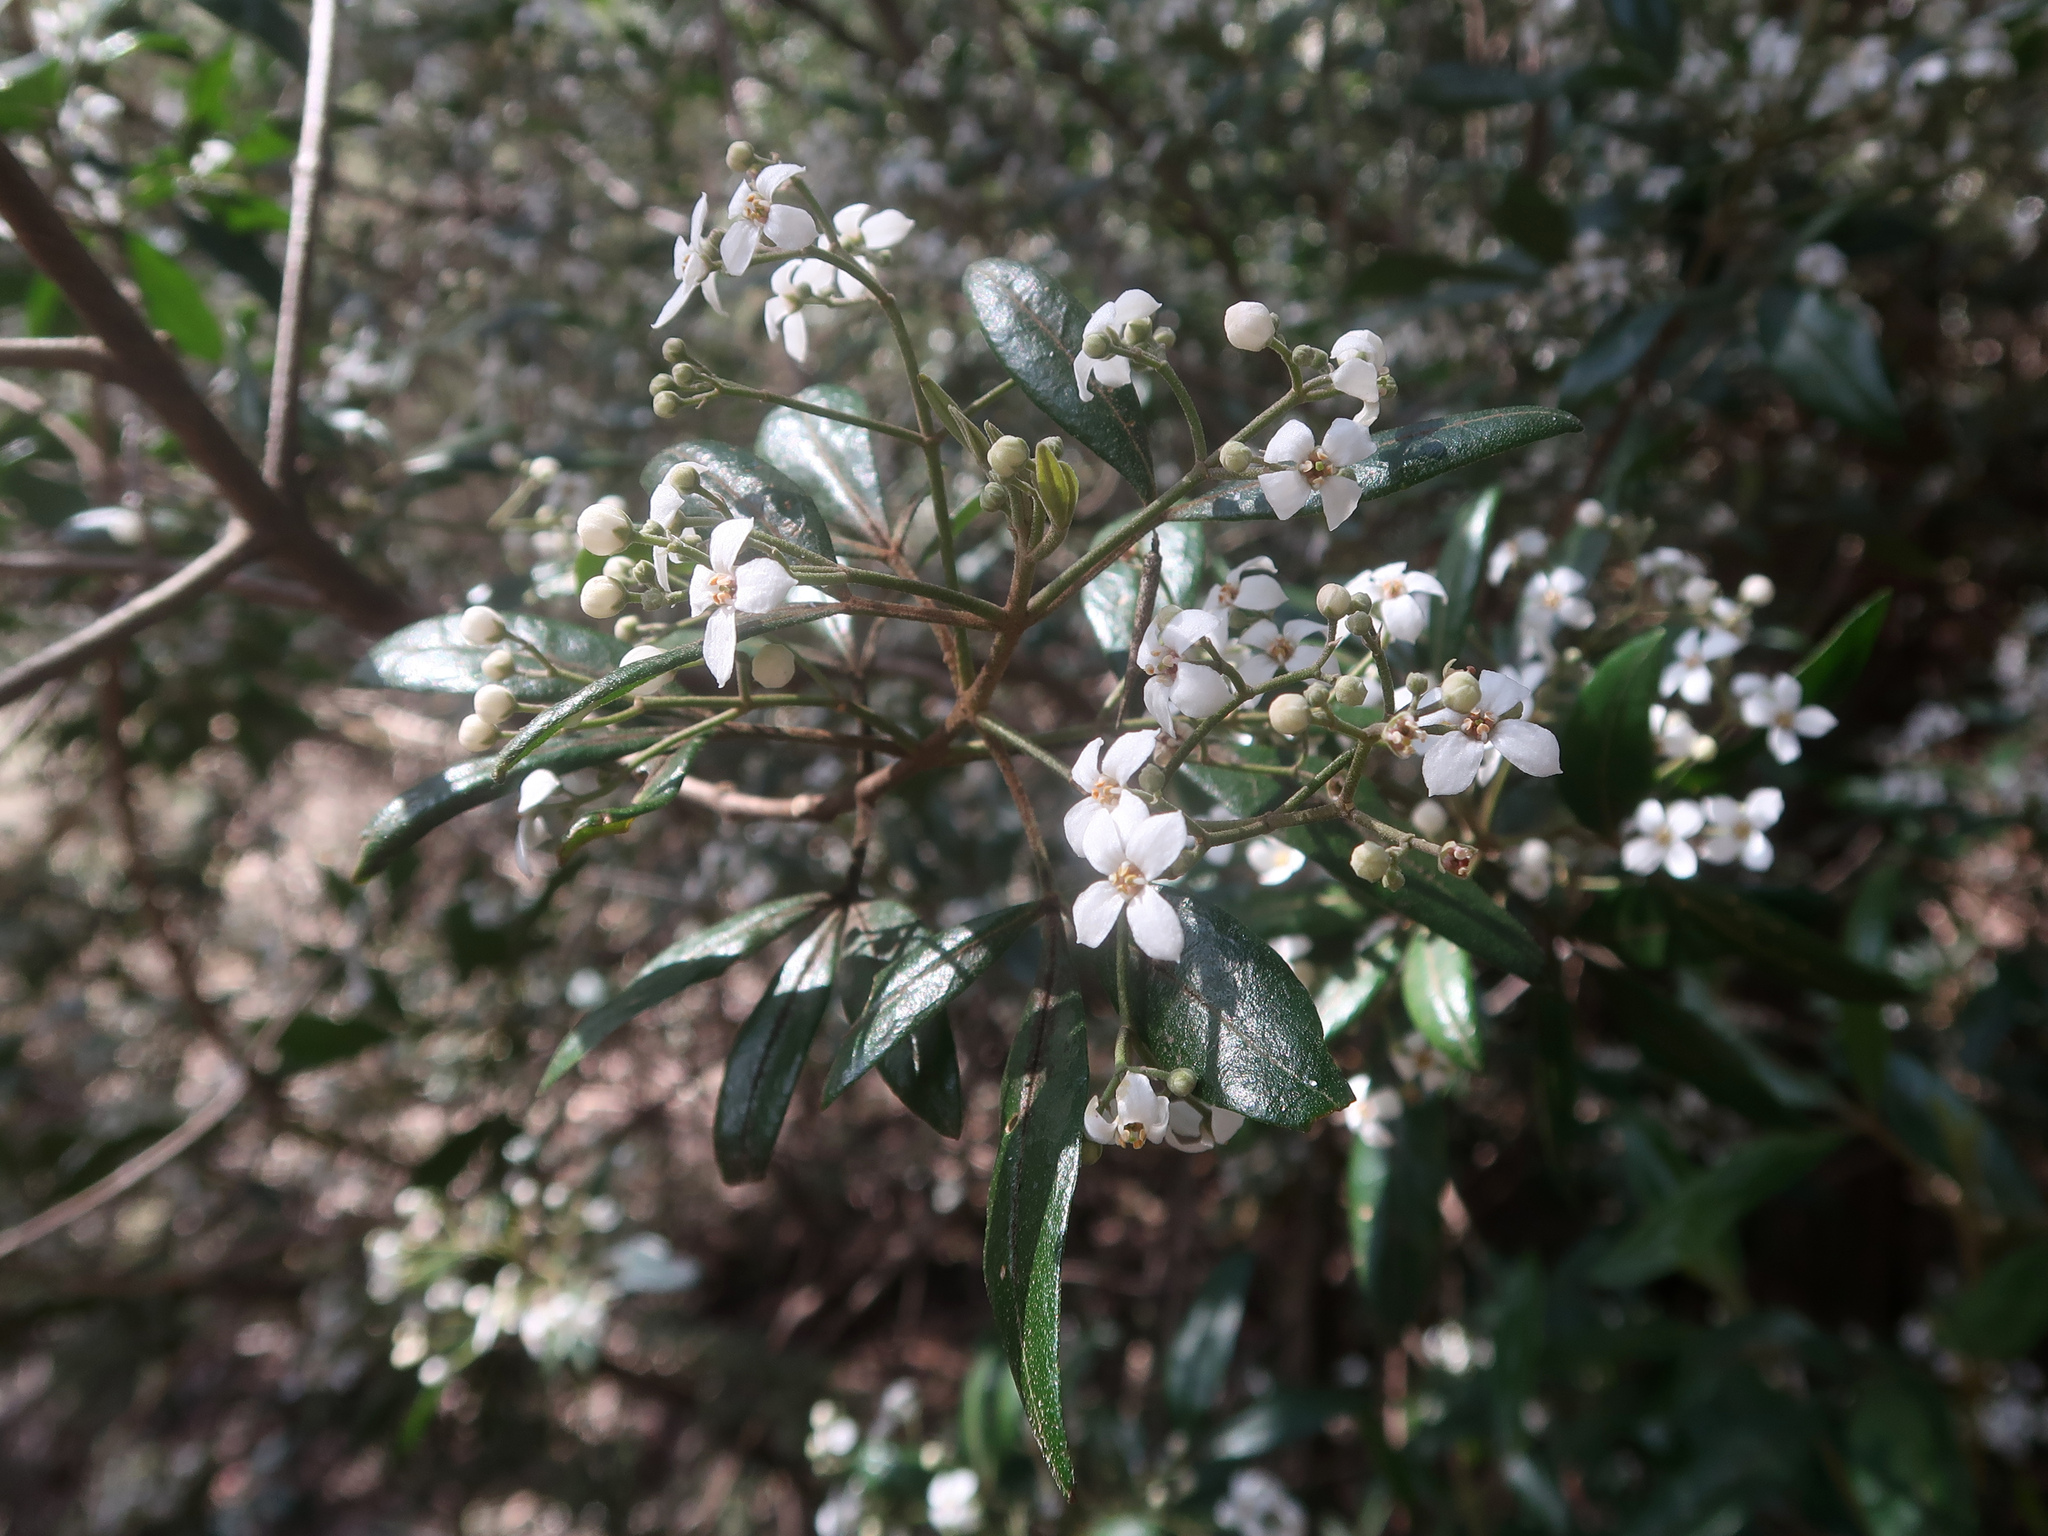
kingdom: Plantae
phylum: Tracheophyta
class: Magnoliopsida
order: Sapindales
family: Rutaceae
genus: Zieria
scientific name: Zieria arborescens
